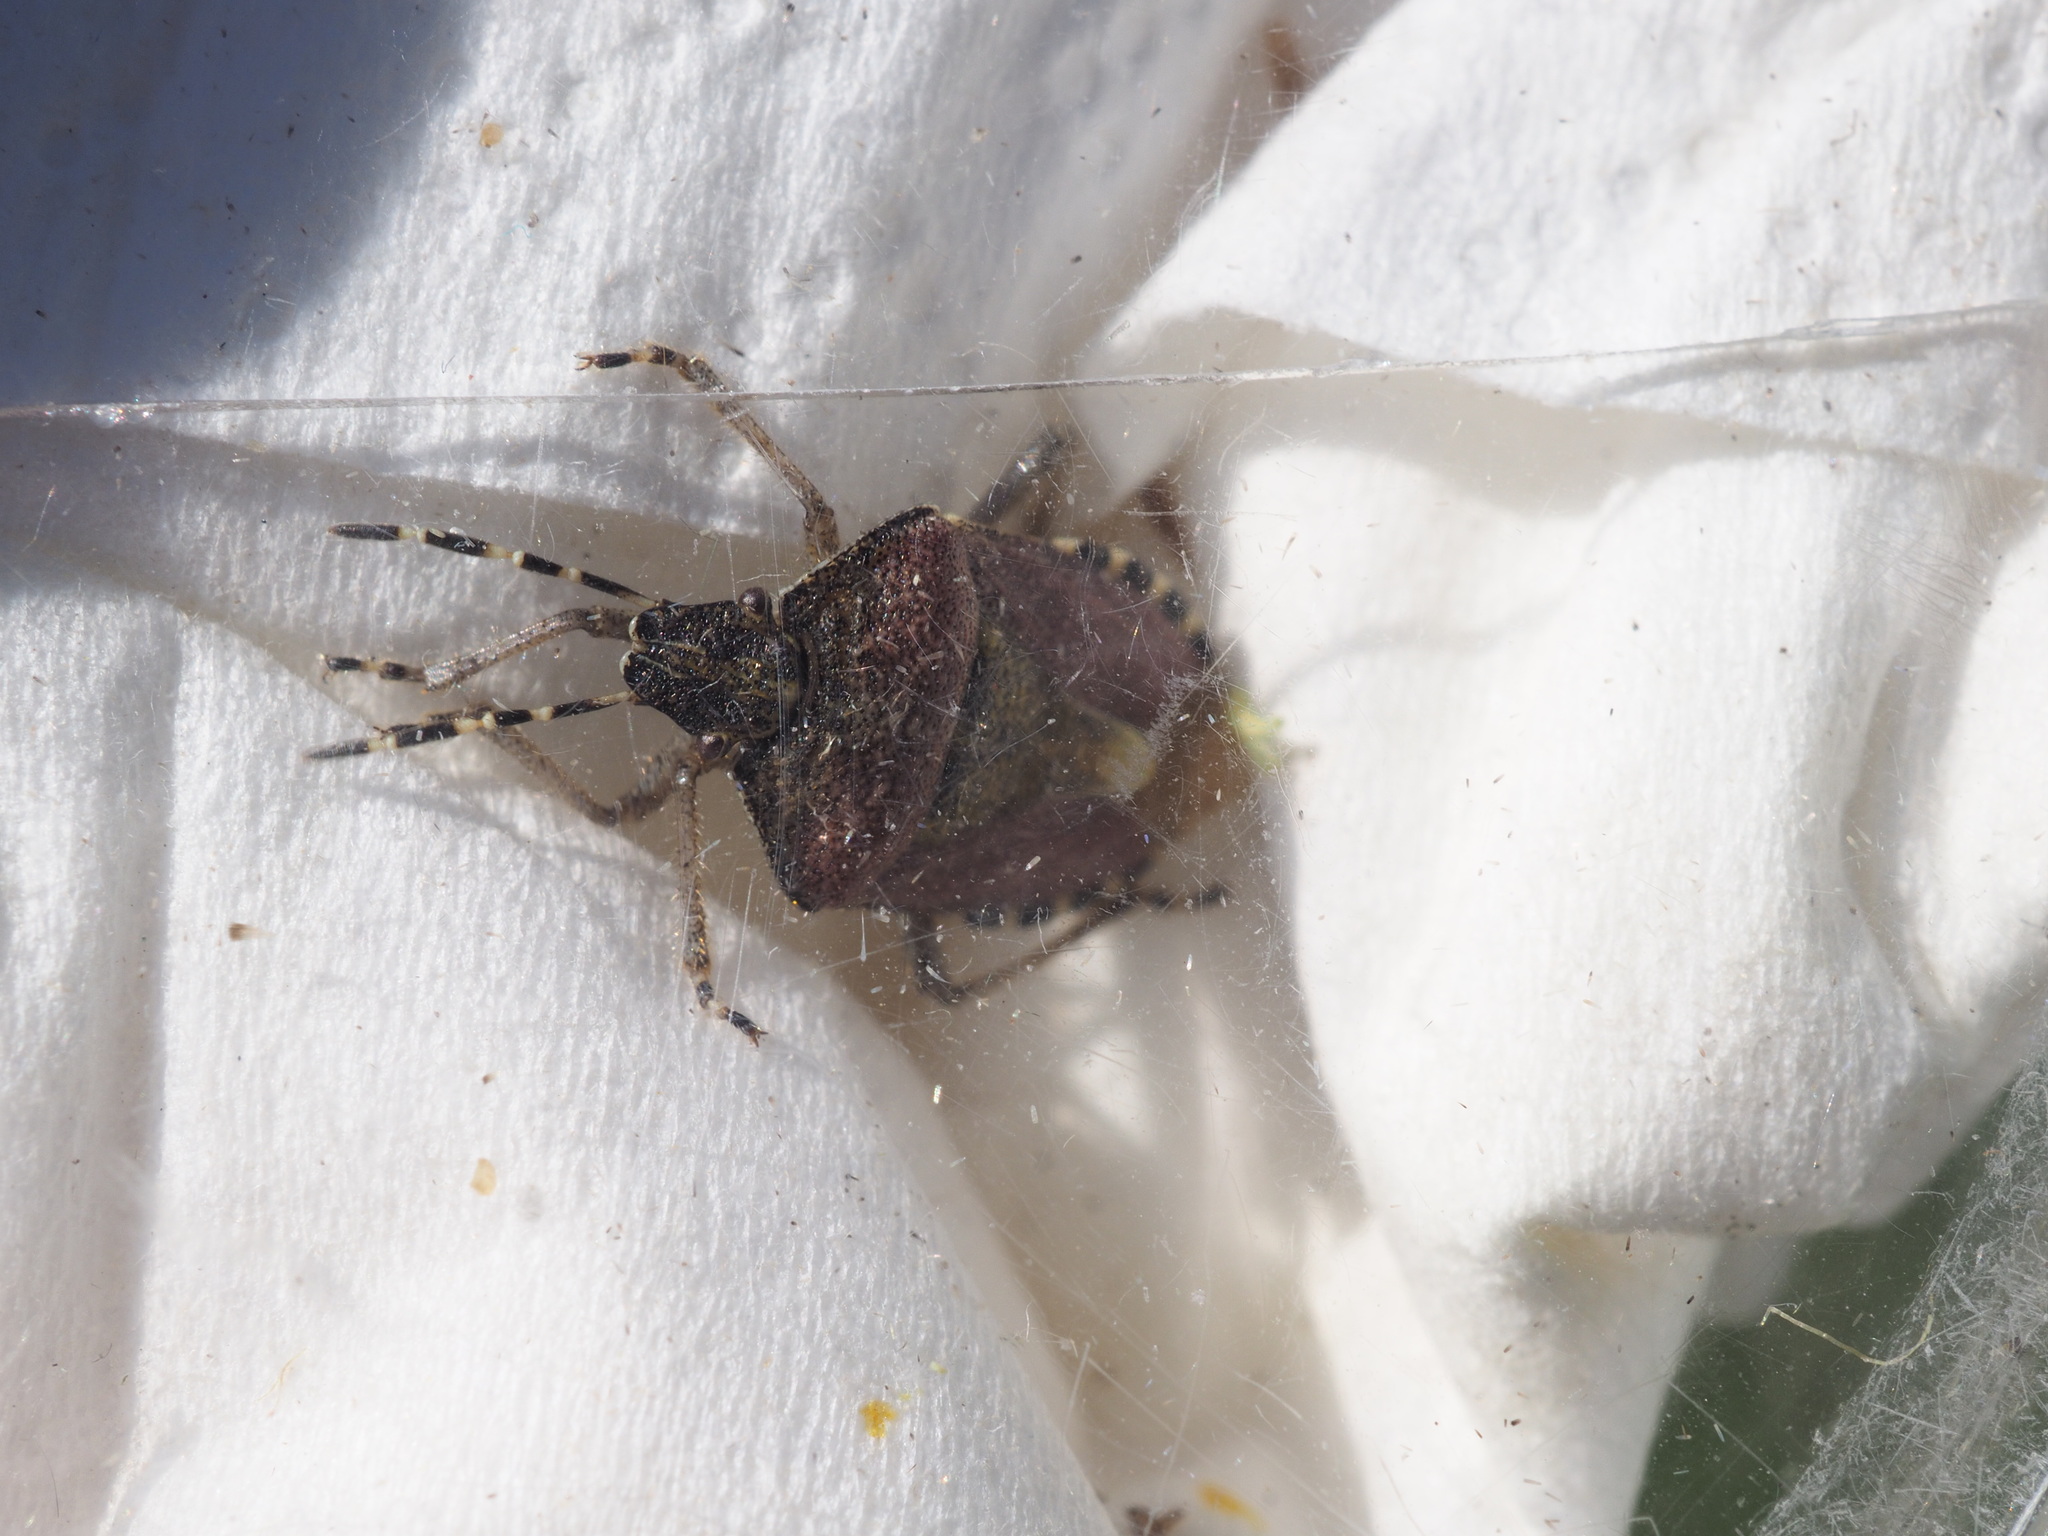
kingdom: Animalia
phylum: Arthropoda
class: Insecta
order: Hemiptera
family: Pentatomidae
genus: Dolycoris
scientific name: Dolycoris baccarum
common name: Sloe bug
